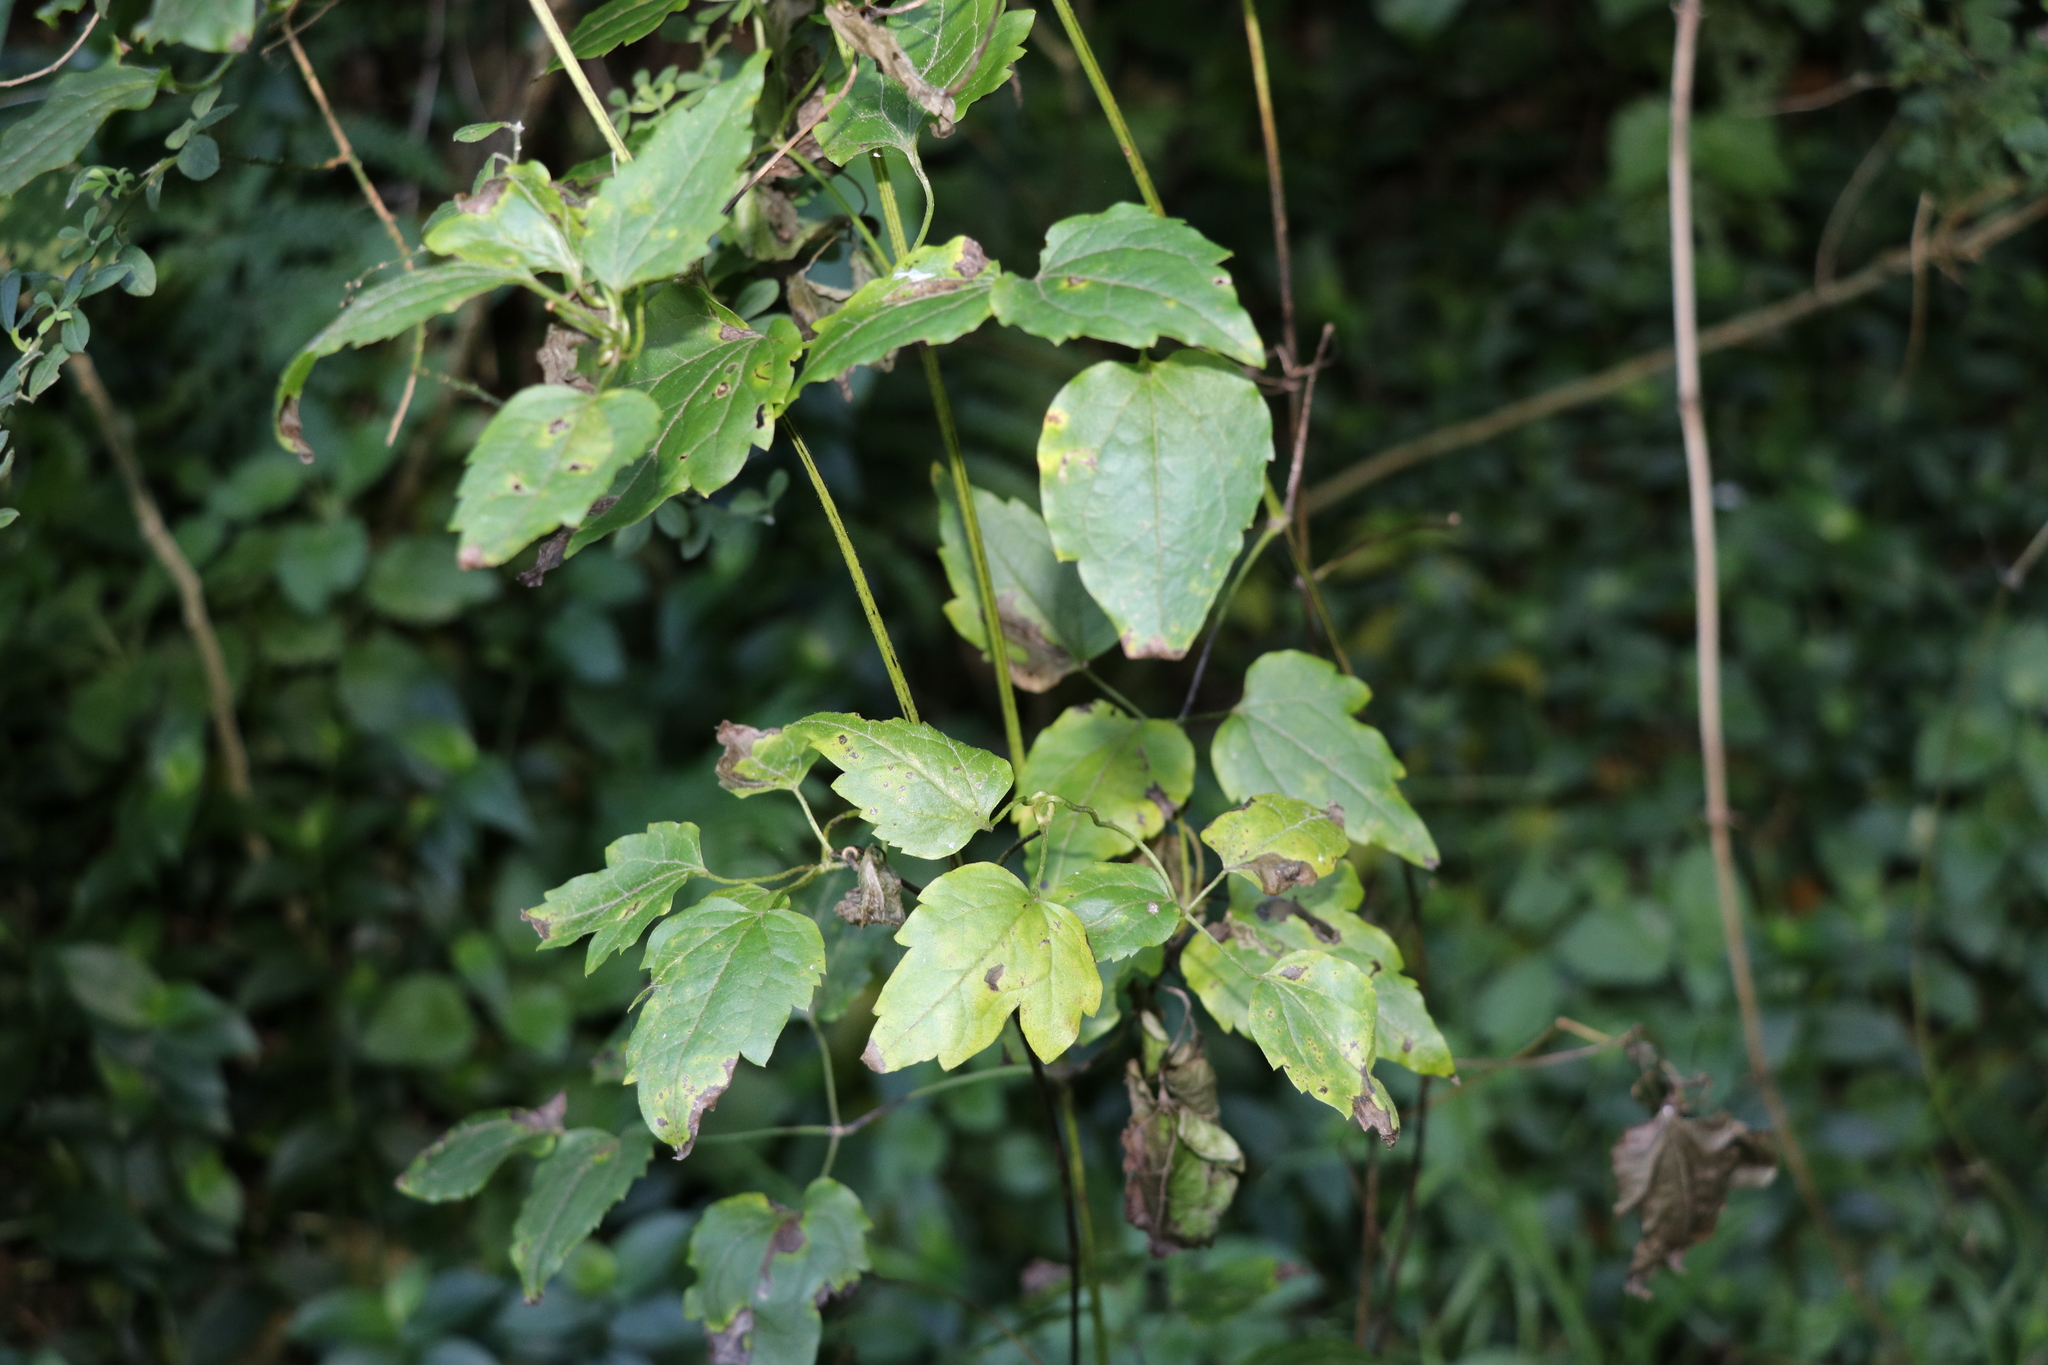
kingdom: Plantae
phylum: Tracheophyta
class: Magnoliopsida
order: Ranunculales
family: Ranunculaceae
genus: Clematis
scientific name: Clematis vitalba
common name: Evergreen clematis
